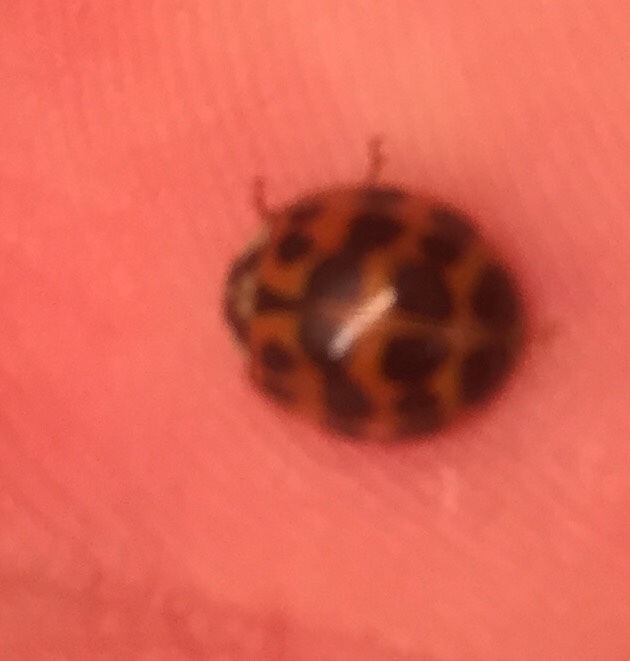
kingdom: Animalia
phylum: Arthropoda
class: Insecta
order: Coleoptera
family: Coccinellidae
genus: Harmonia
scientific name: Harmonia axyridis
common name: Harlequin ladybird
